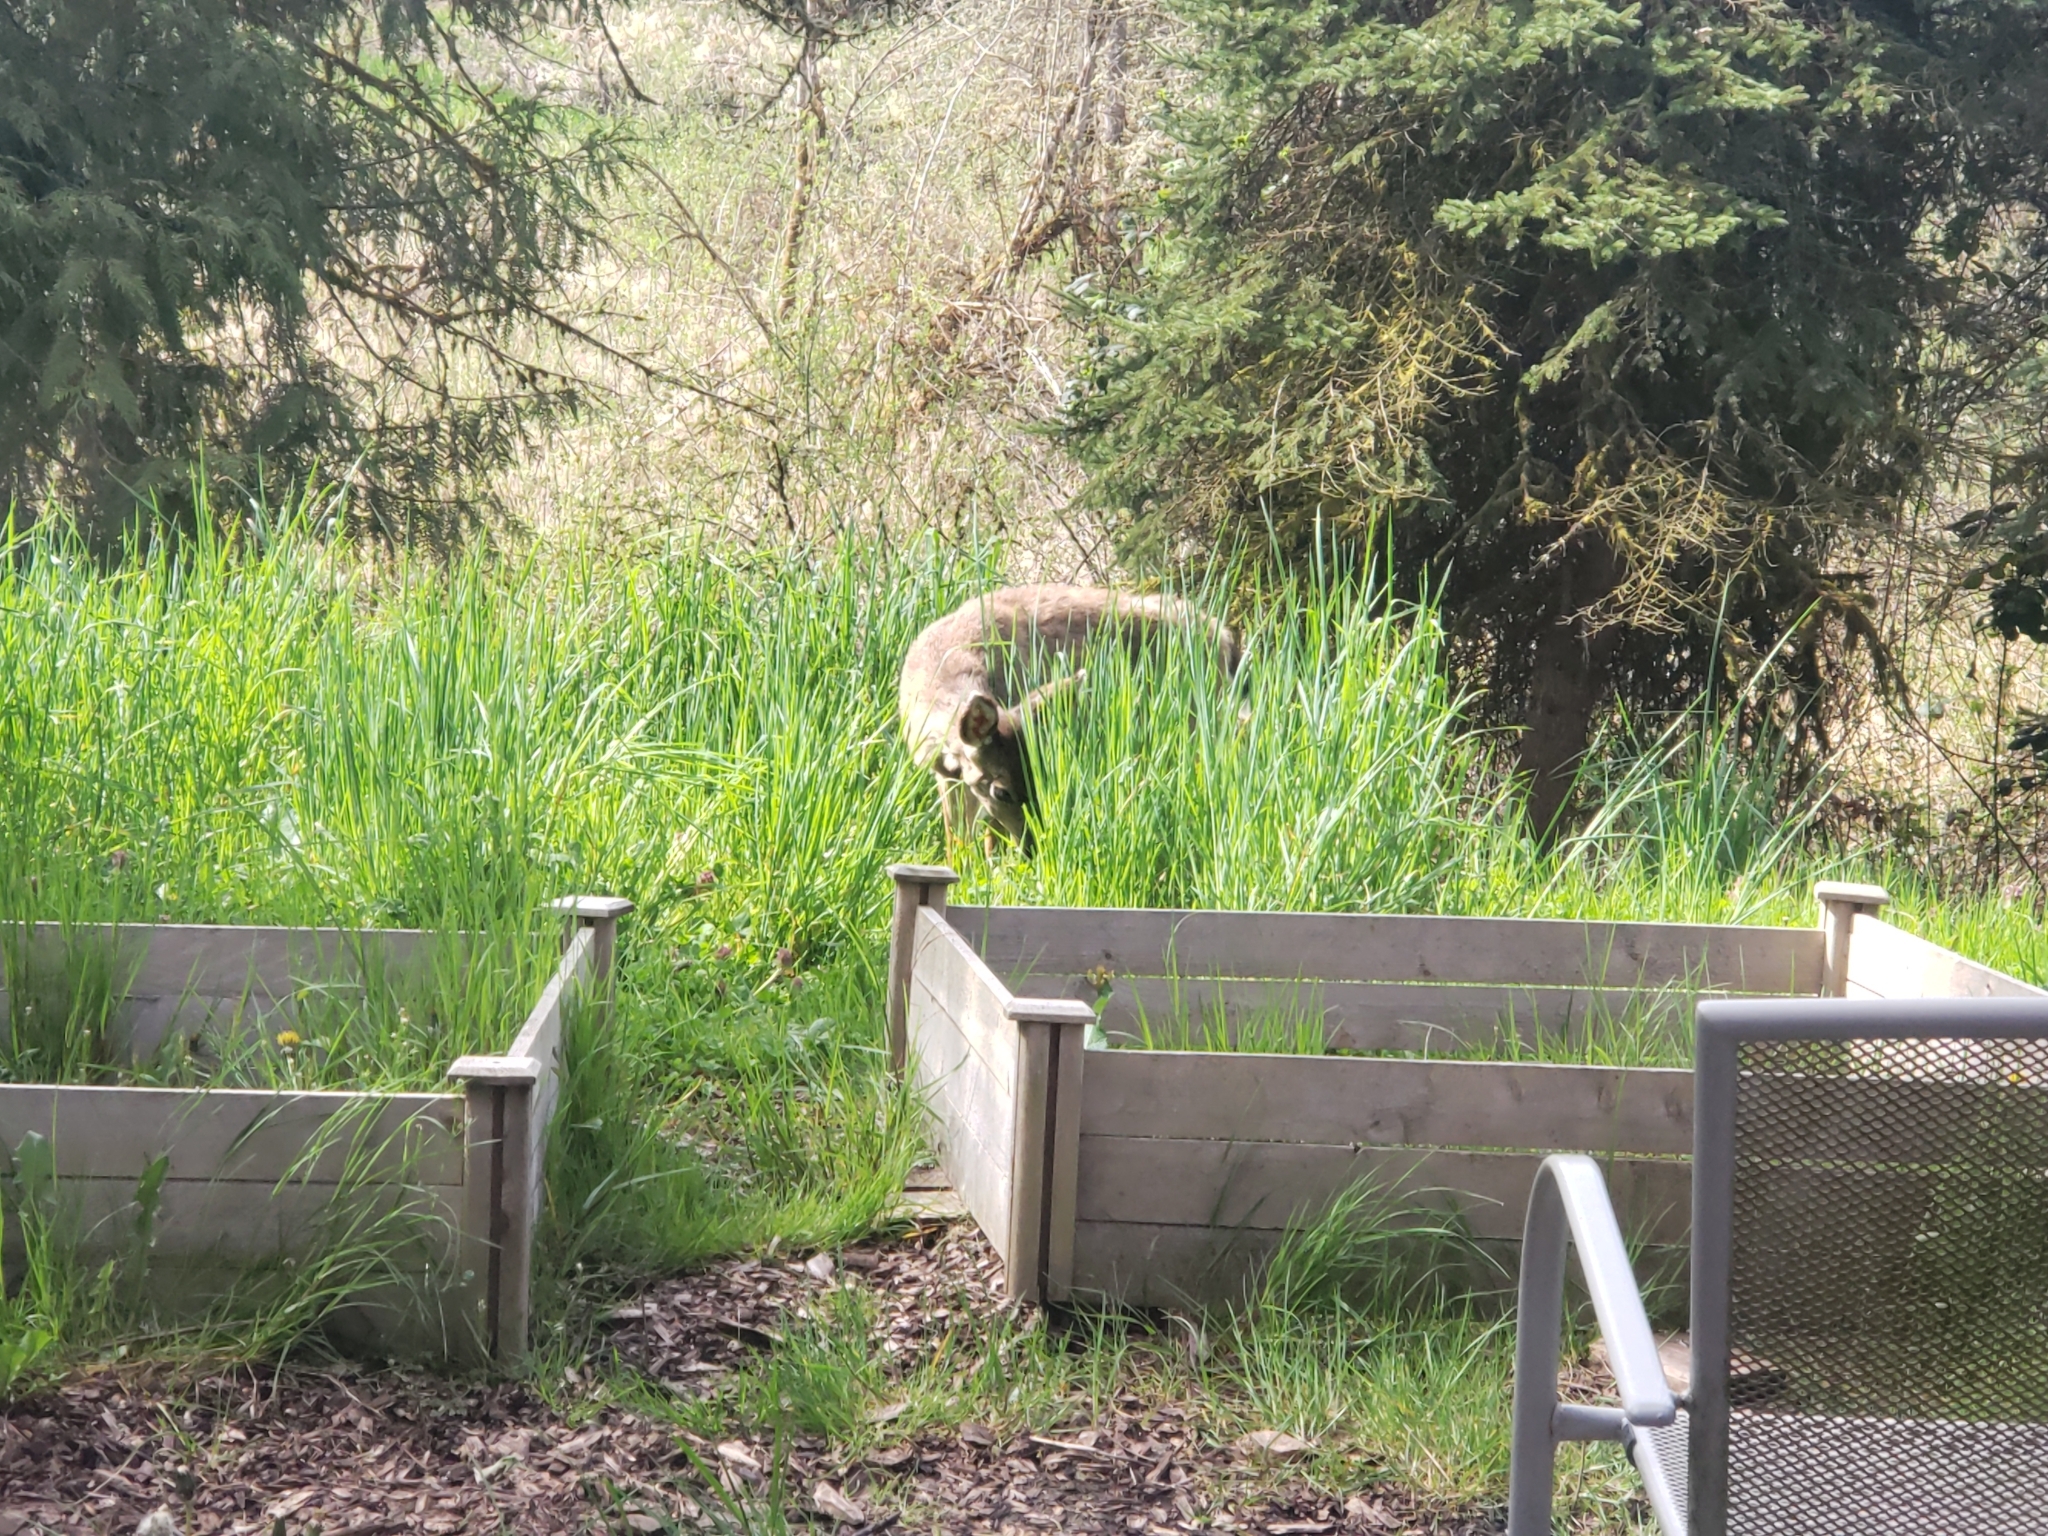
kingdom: Animalia
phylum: Chordata
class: Mammalia
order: Artiodactyla
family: Cervidae
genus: Odocoileus
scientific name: Odocoileus hemionus
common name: Mule deer
